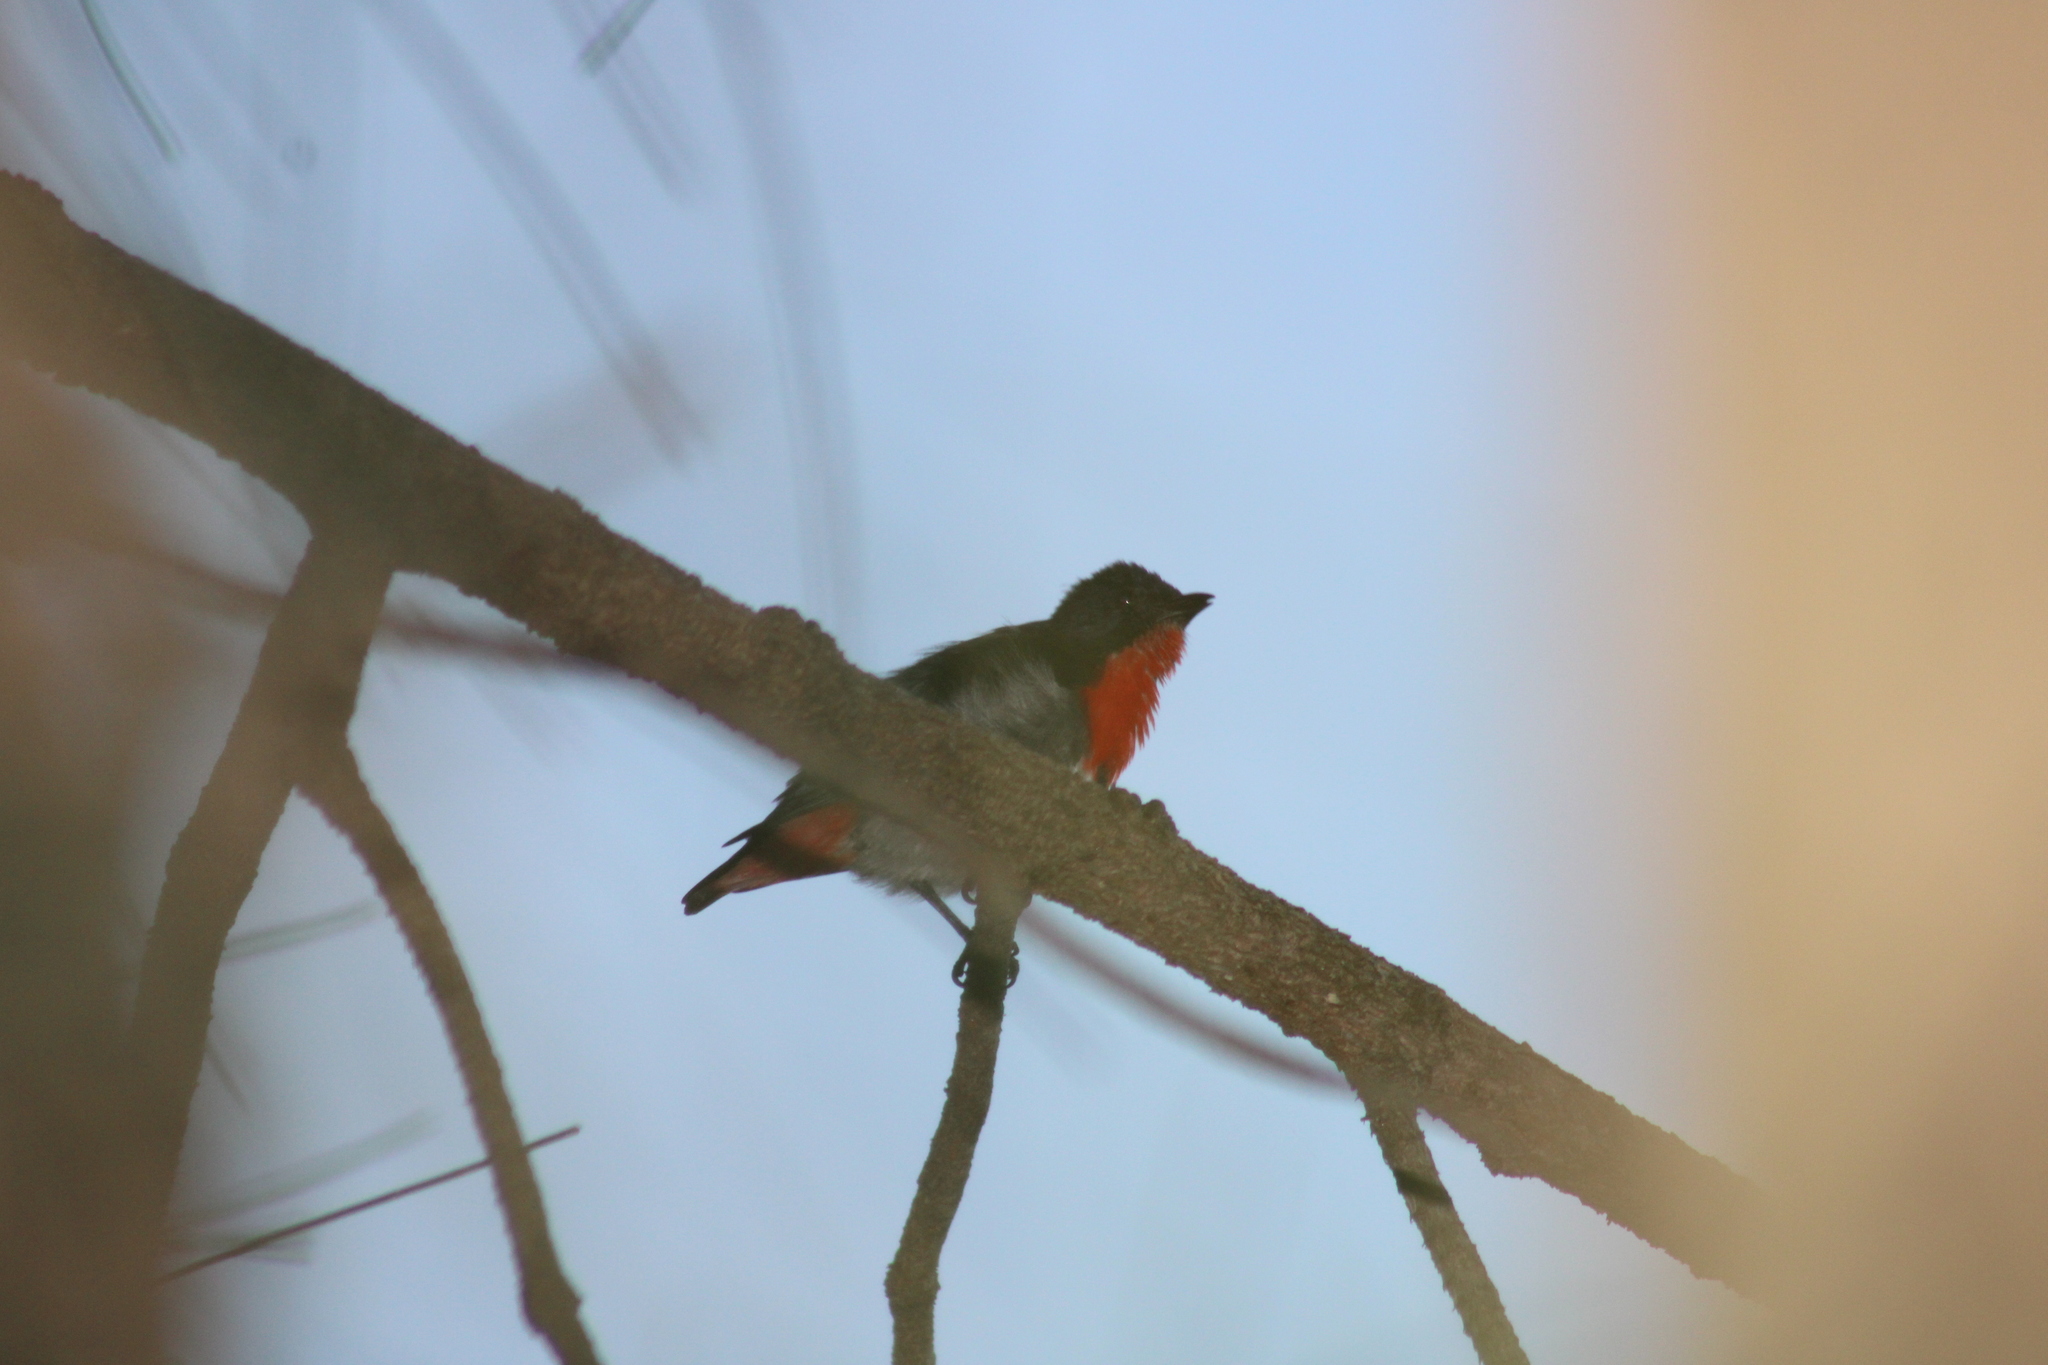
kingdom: Animalia
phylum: Chordata
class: Aves
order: Passeriformes
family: Dicaeidae
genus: Dicaeum
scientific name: Dicaeum hirundinaceum
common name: Mistletoebird
